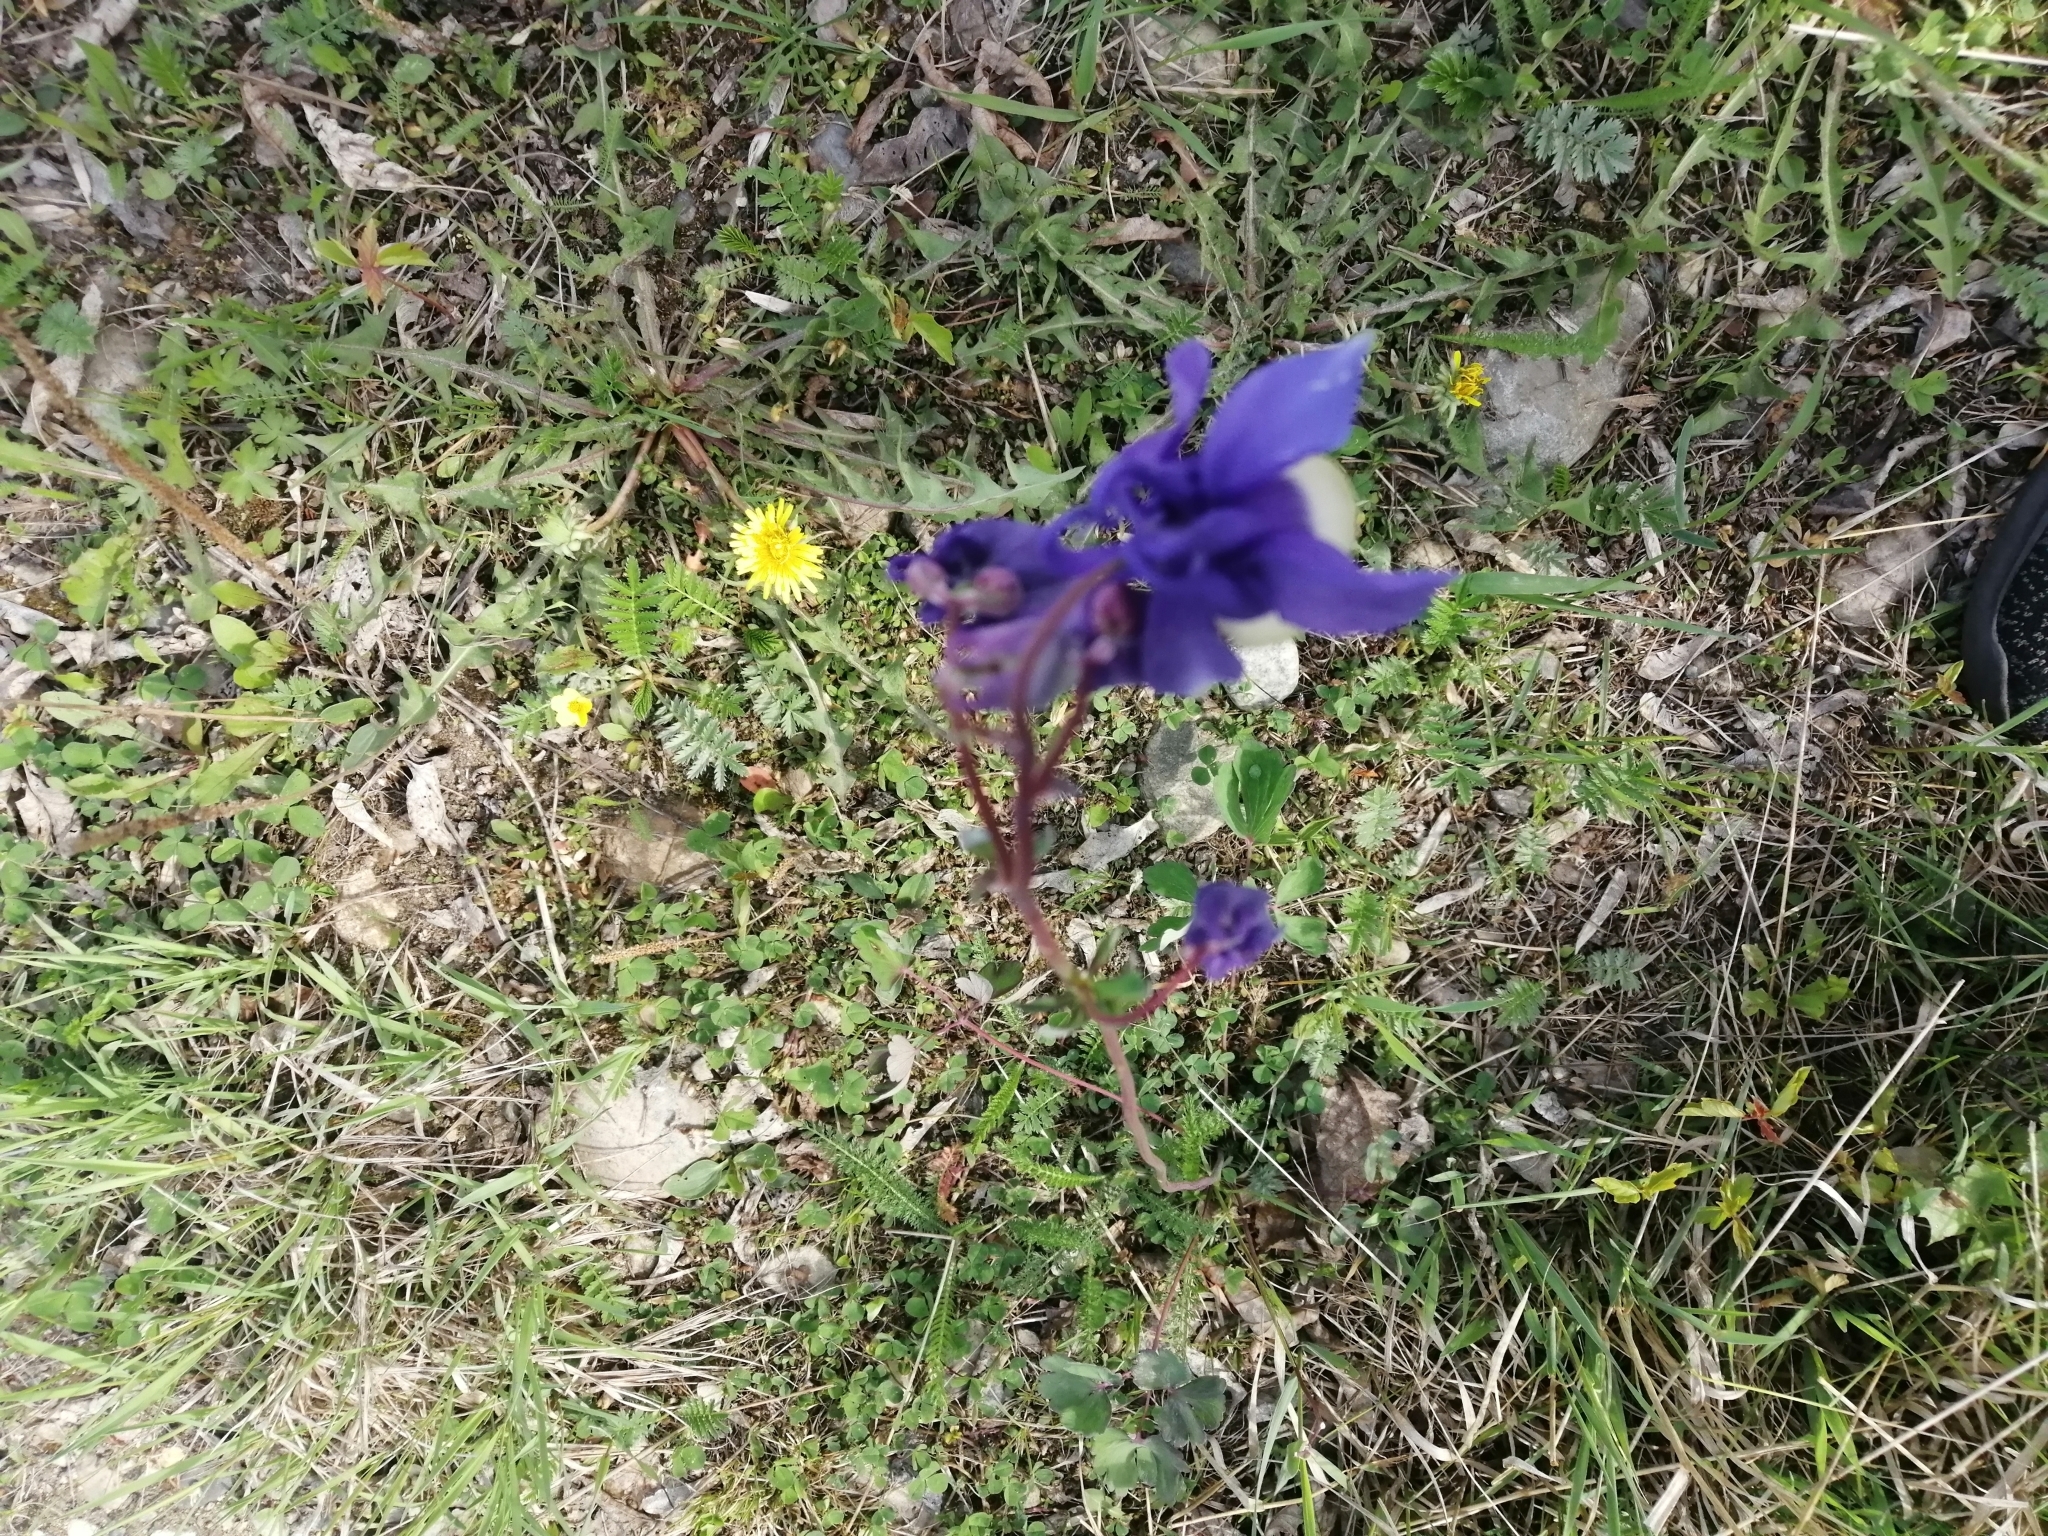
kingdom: Plantae
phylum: Tracheophyta
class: Magnoliopsida
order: Ranunculales
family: Ranunculaceae
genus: Aquilegia
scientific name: Aquilegia sibirica
